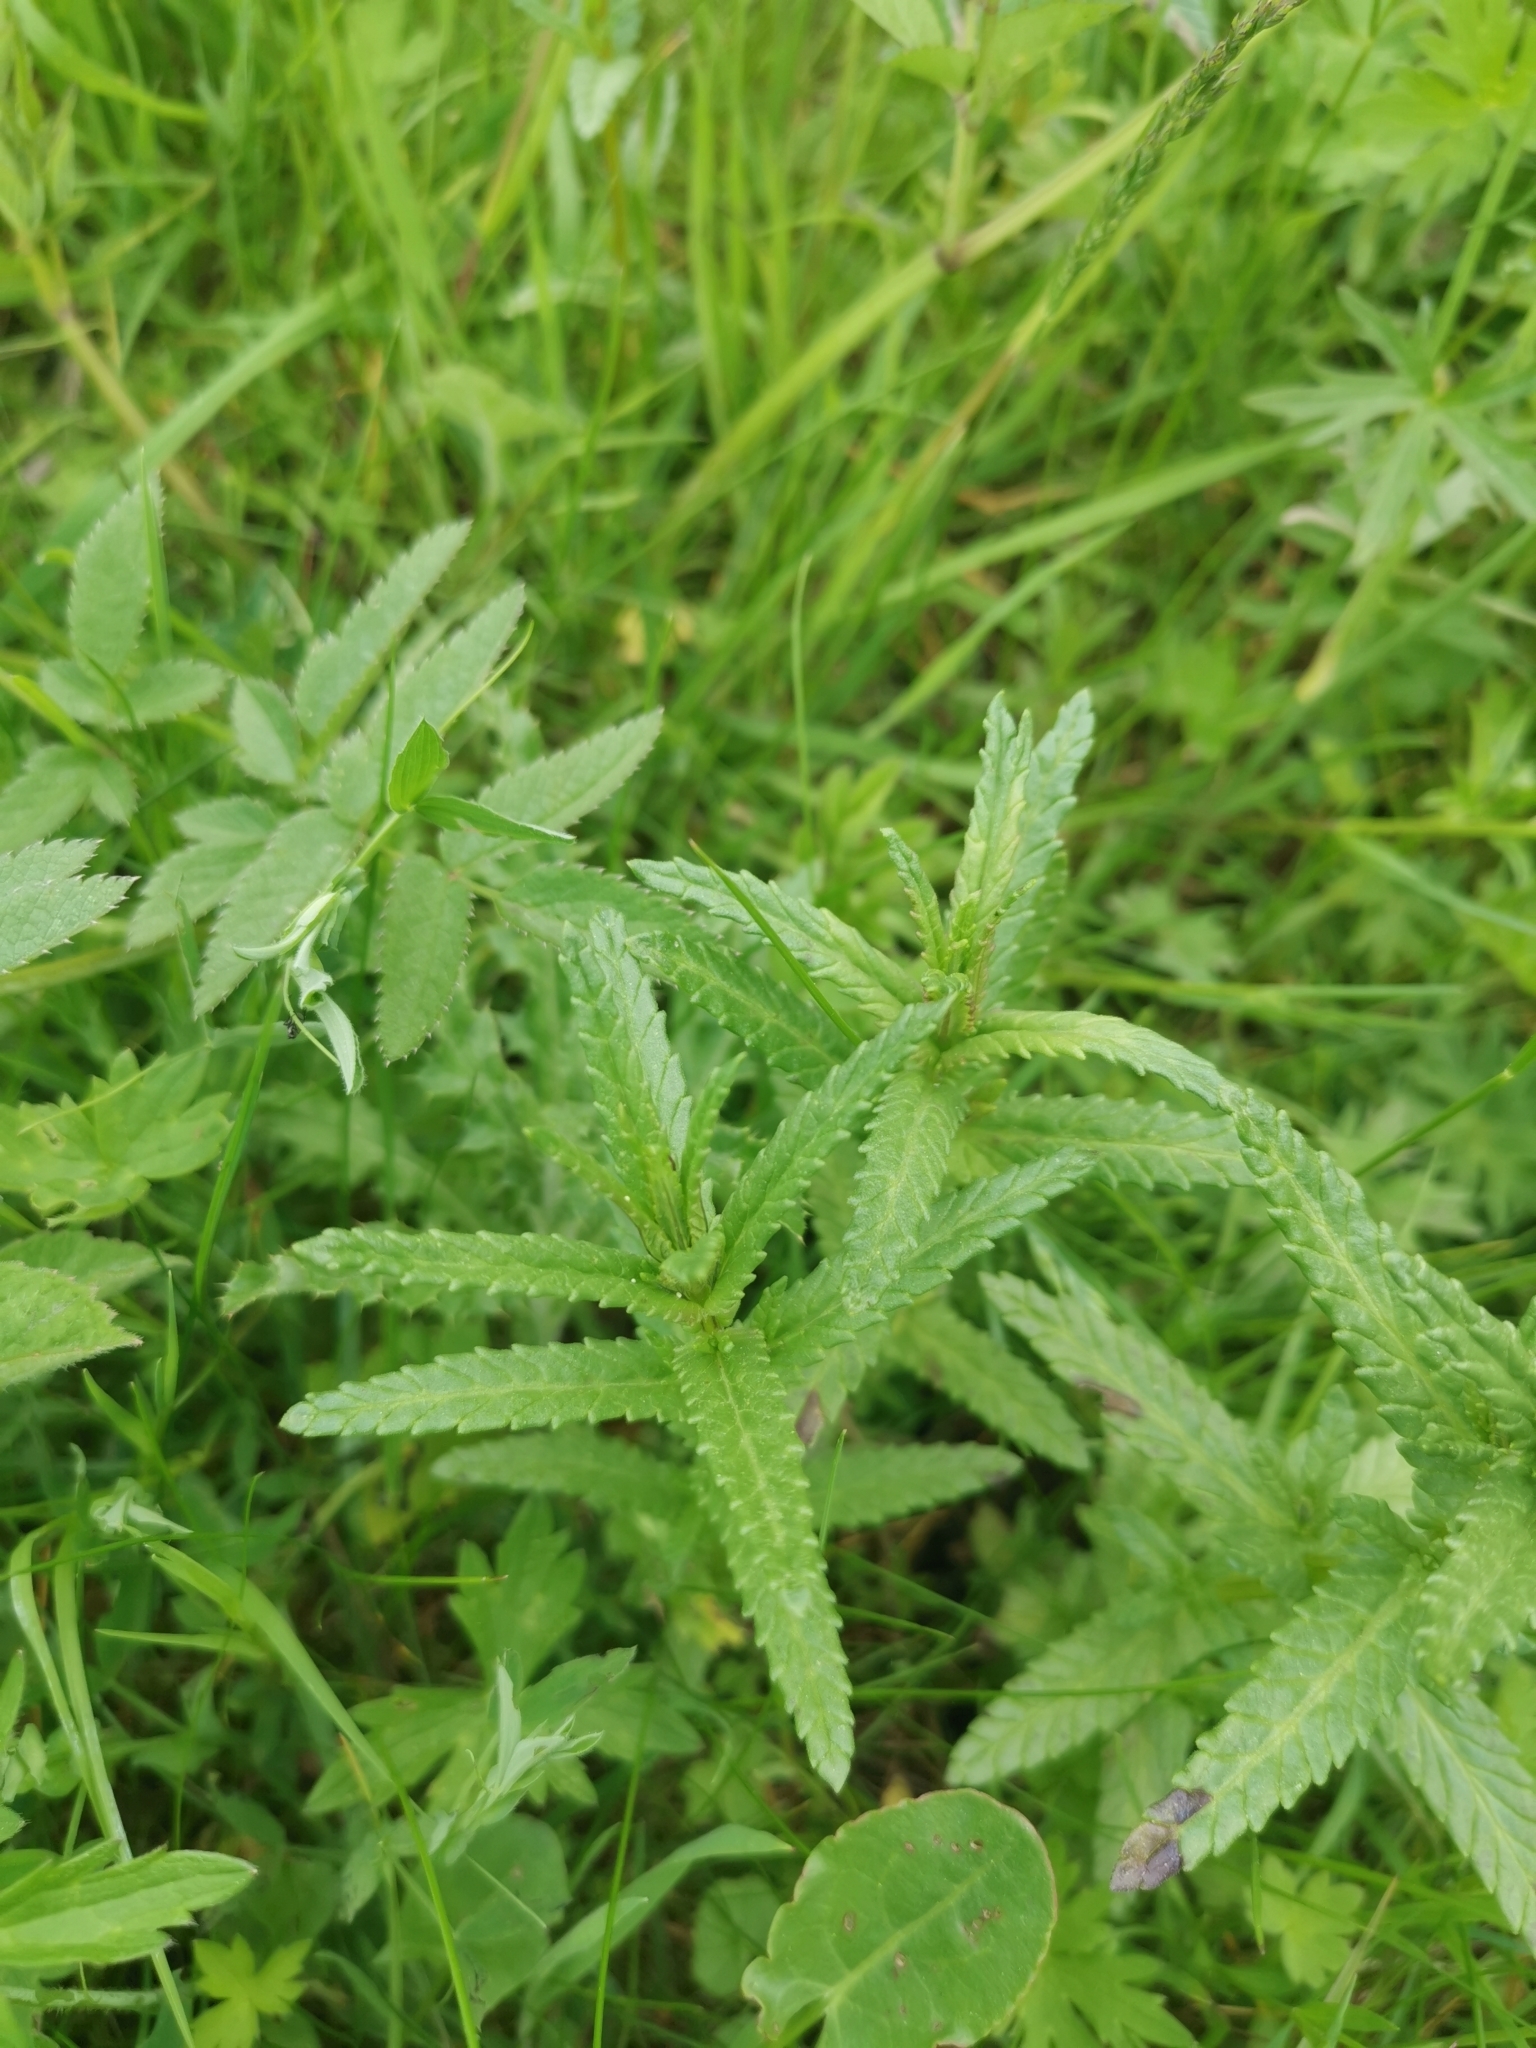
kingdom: Plantae
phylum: Tracheophyta
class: Magnoliopsida
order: Lamiales
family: Orobanchaceae
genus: Rhinanthus
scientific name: Rhinanthus minor
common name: Yellow-rattle
